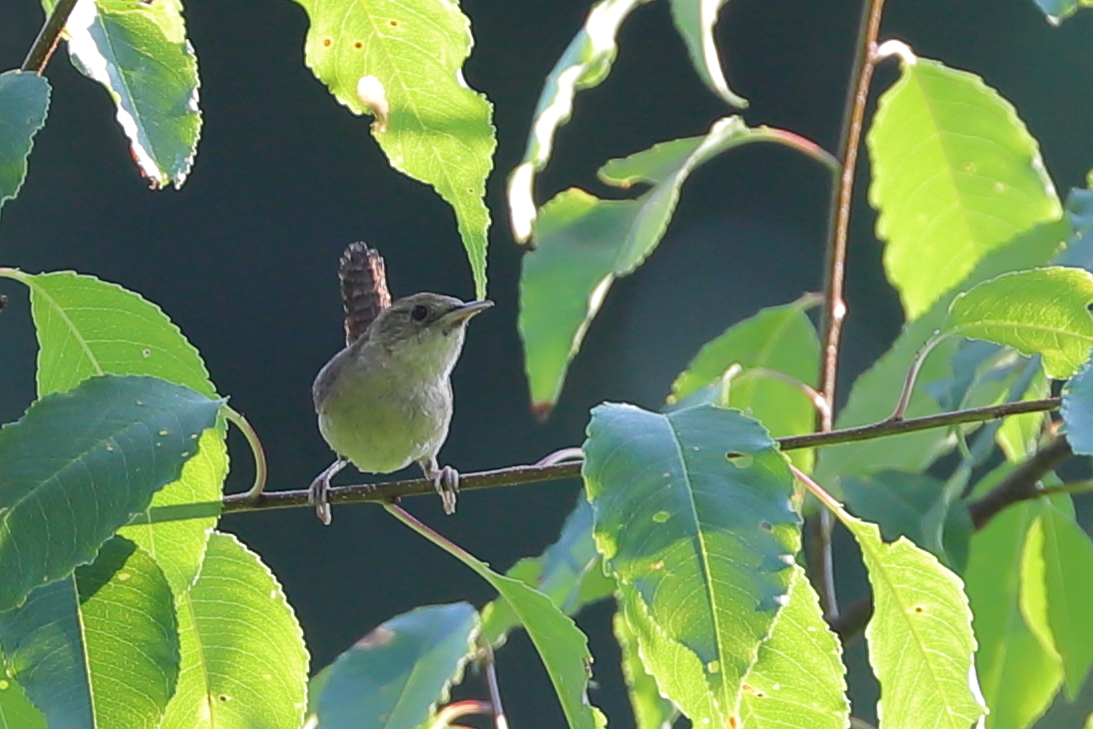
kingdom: Animalia
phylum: Chordata
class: Aves
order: Passeriformes
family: Troglodytidae
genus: Troglodytes
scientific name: Troglodytes aedon
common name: House wren
